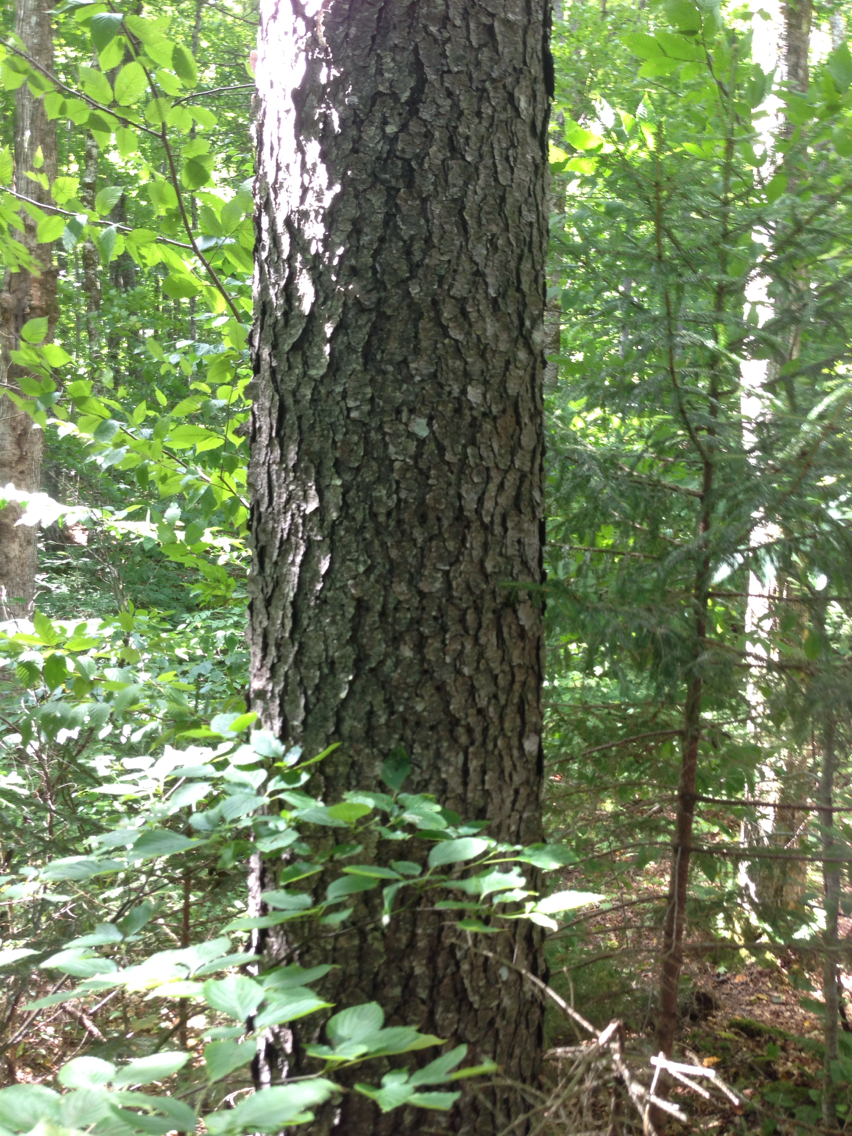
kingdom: Plantae
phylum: Tracheophyta
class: Magnoliopsida
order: Rosales
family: Rosaceae
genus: Prunus
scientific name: Prunus serotina
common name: Black cherry
